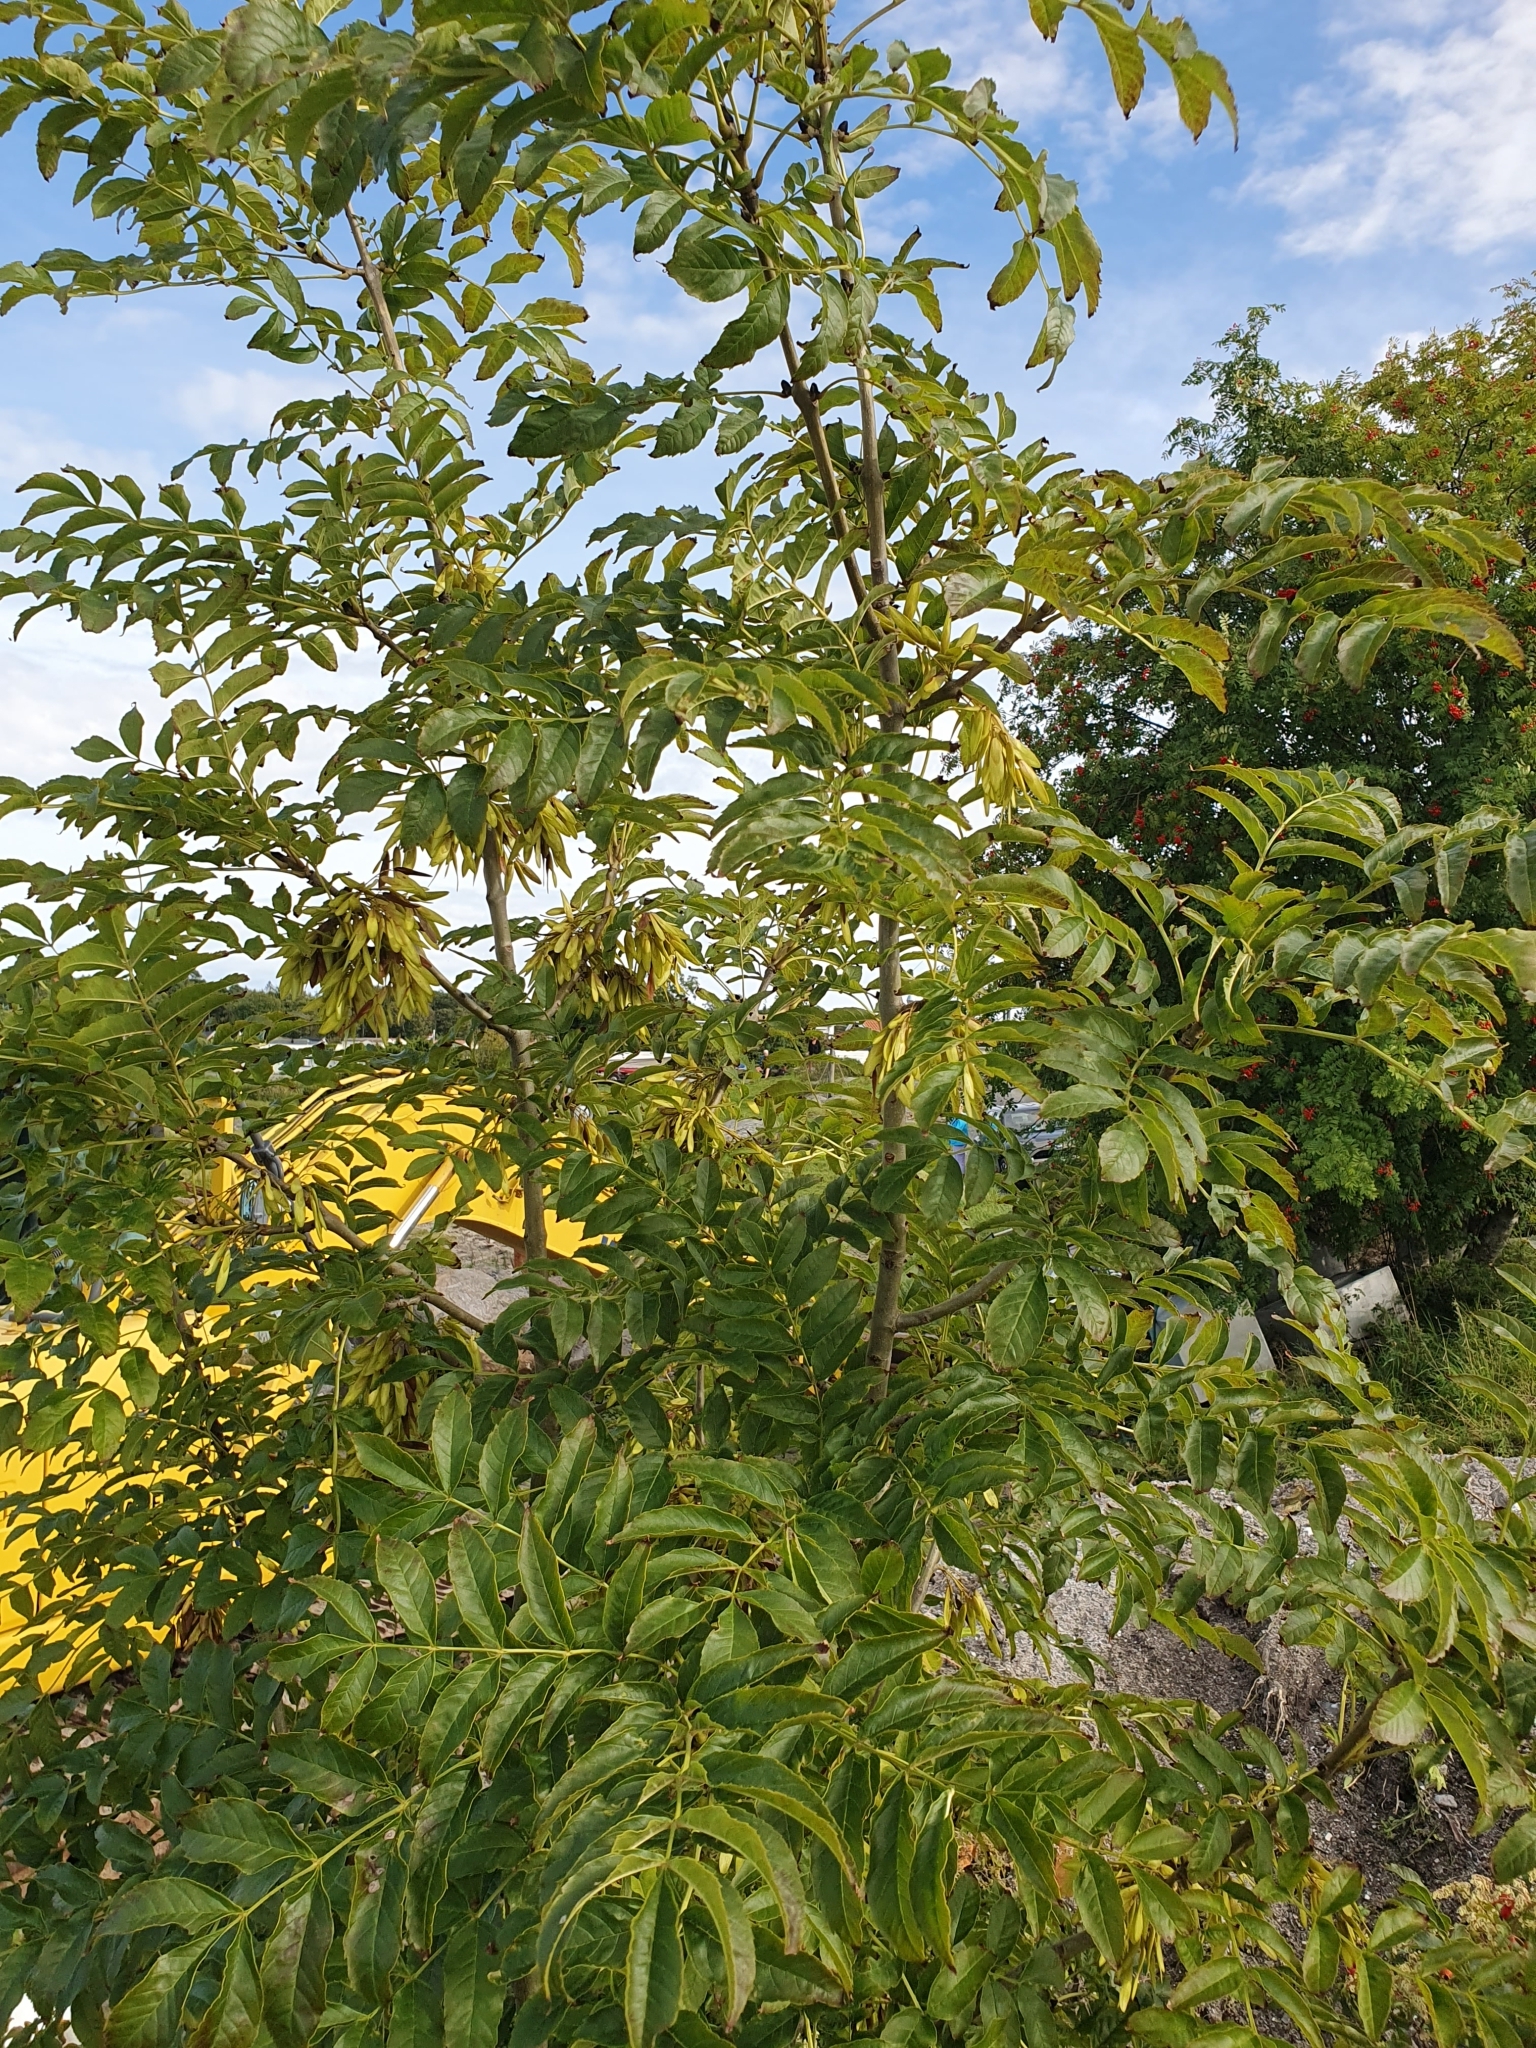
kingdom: Plantae
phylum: Tracheophyta
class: Magnoliopsida
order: Lamiales
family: Oleaceae
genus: Fraxinus
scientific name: Fraxinus excelsior
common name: European ash
